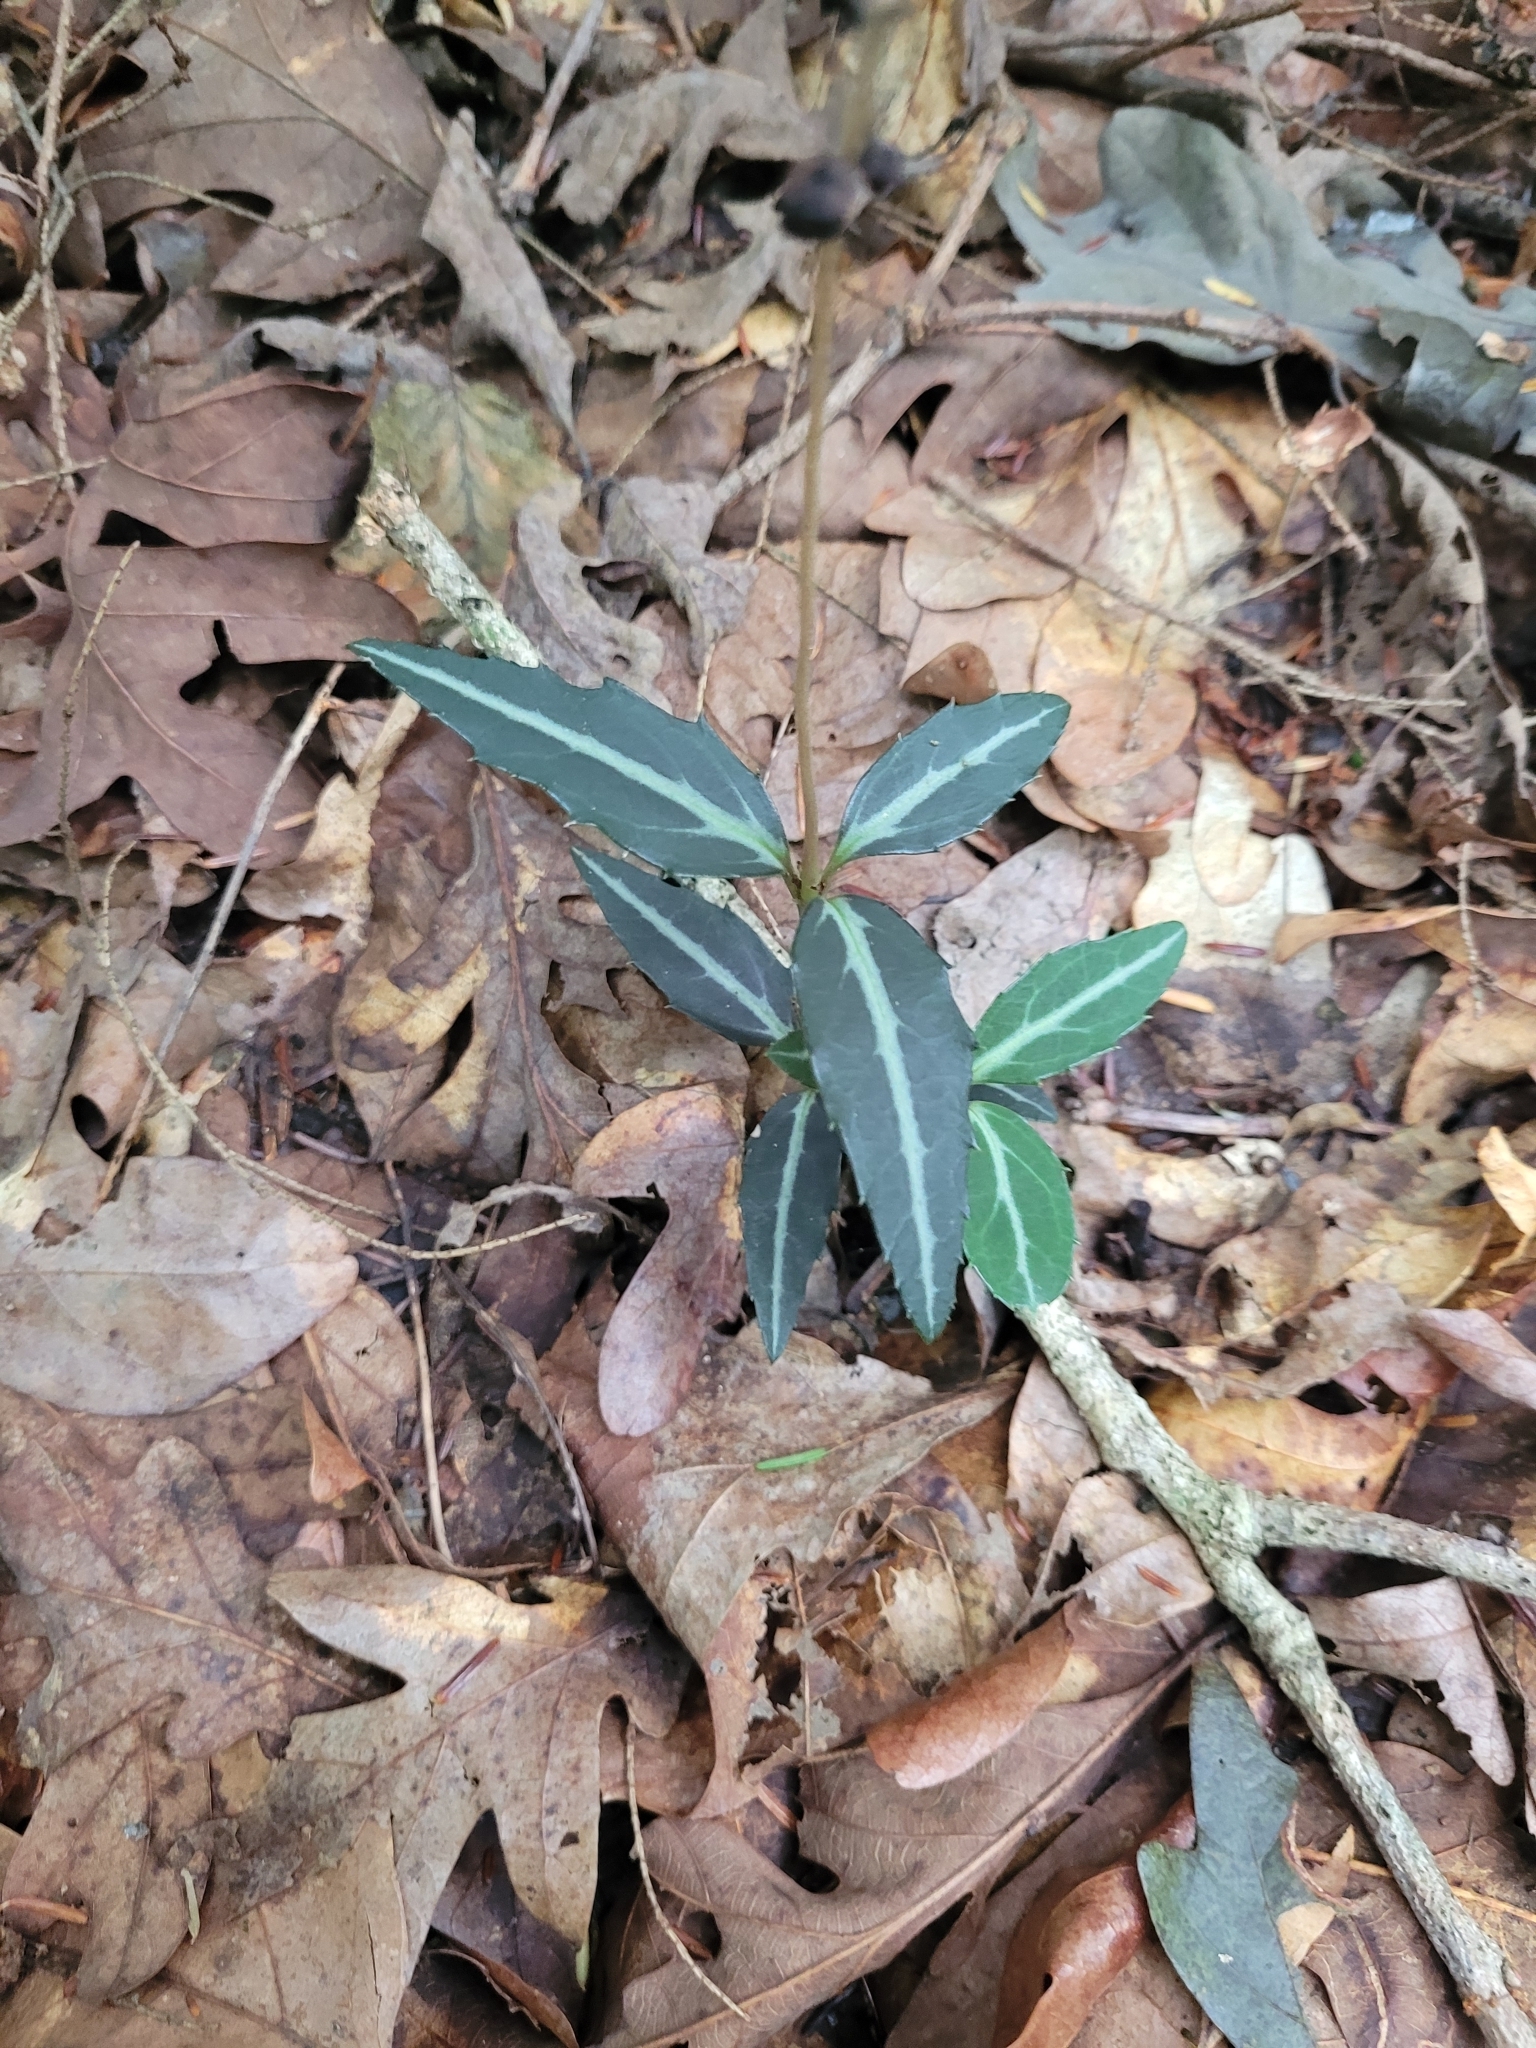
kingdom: Plantae
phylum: Tracheophyta
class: Magnoliopsida
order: Ericales
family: Ericaceae
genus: Chimaphila
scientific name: Chimaphila maculata
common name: Spotted pipsissewa
